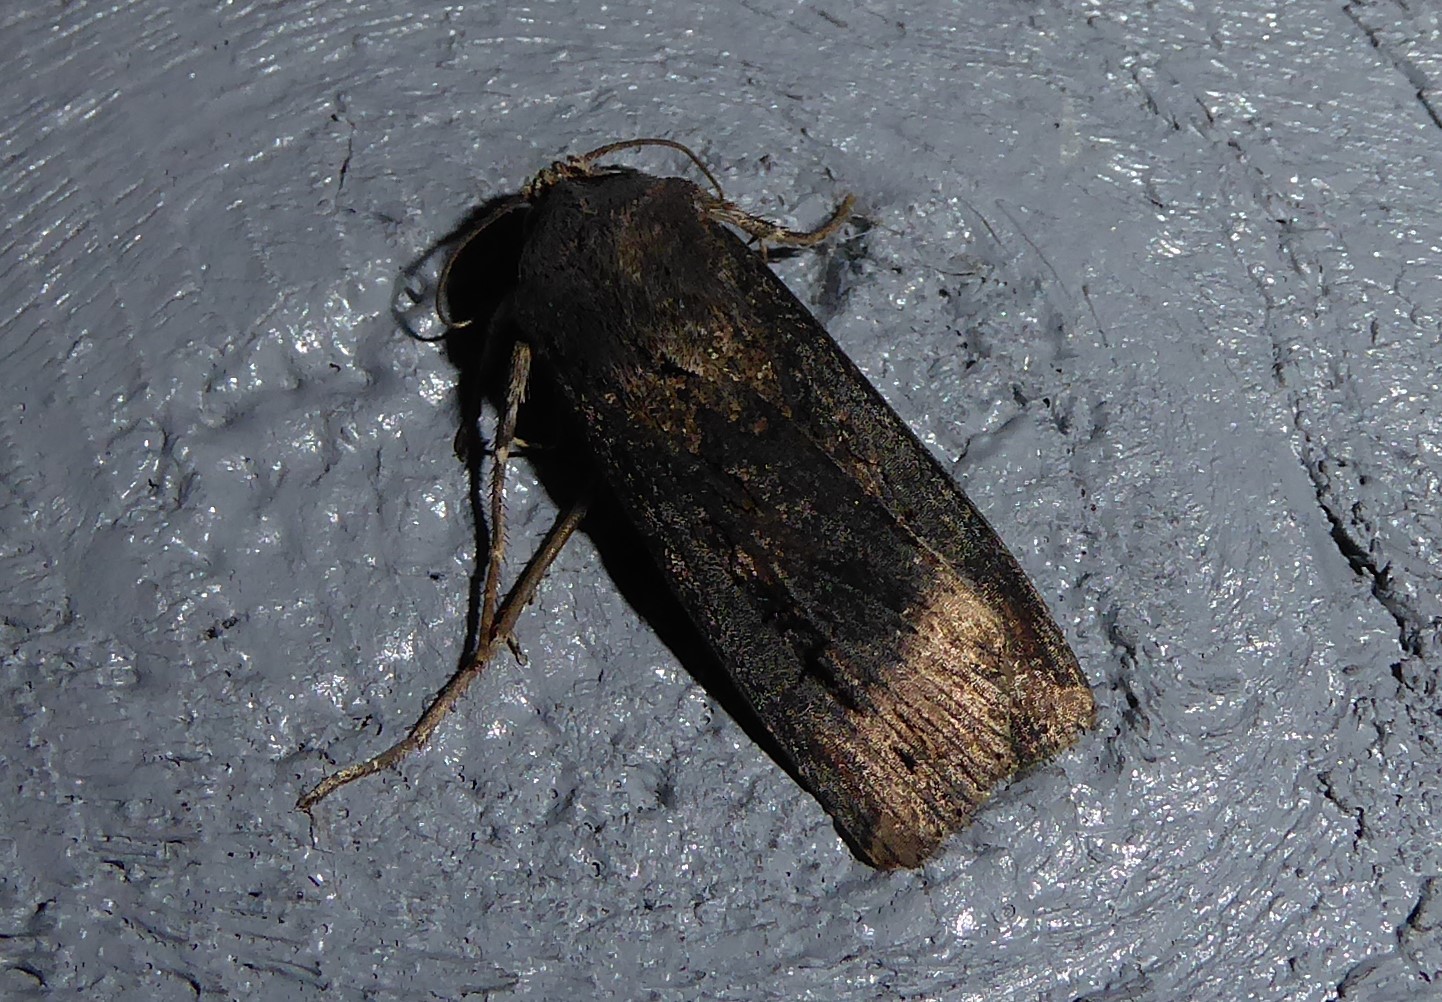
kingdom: Animalia
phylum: Arthropoda
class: Insecta
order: Lepidoptera
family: Noctuidae
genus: Agrotis
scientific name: Agrotis ipsilon
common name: Dark sword-grass
